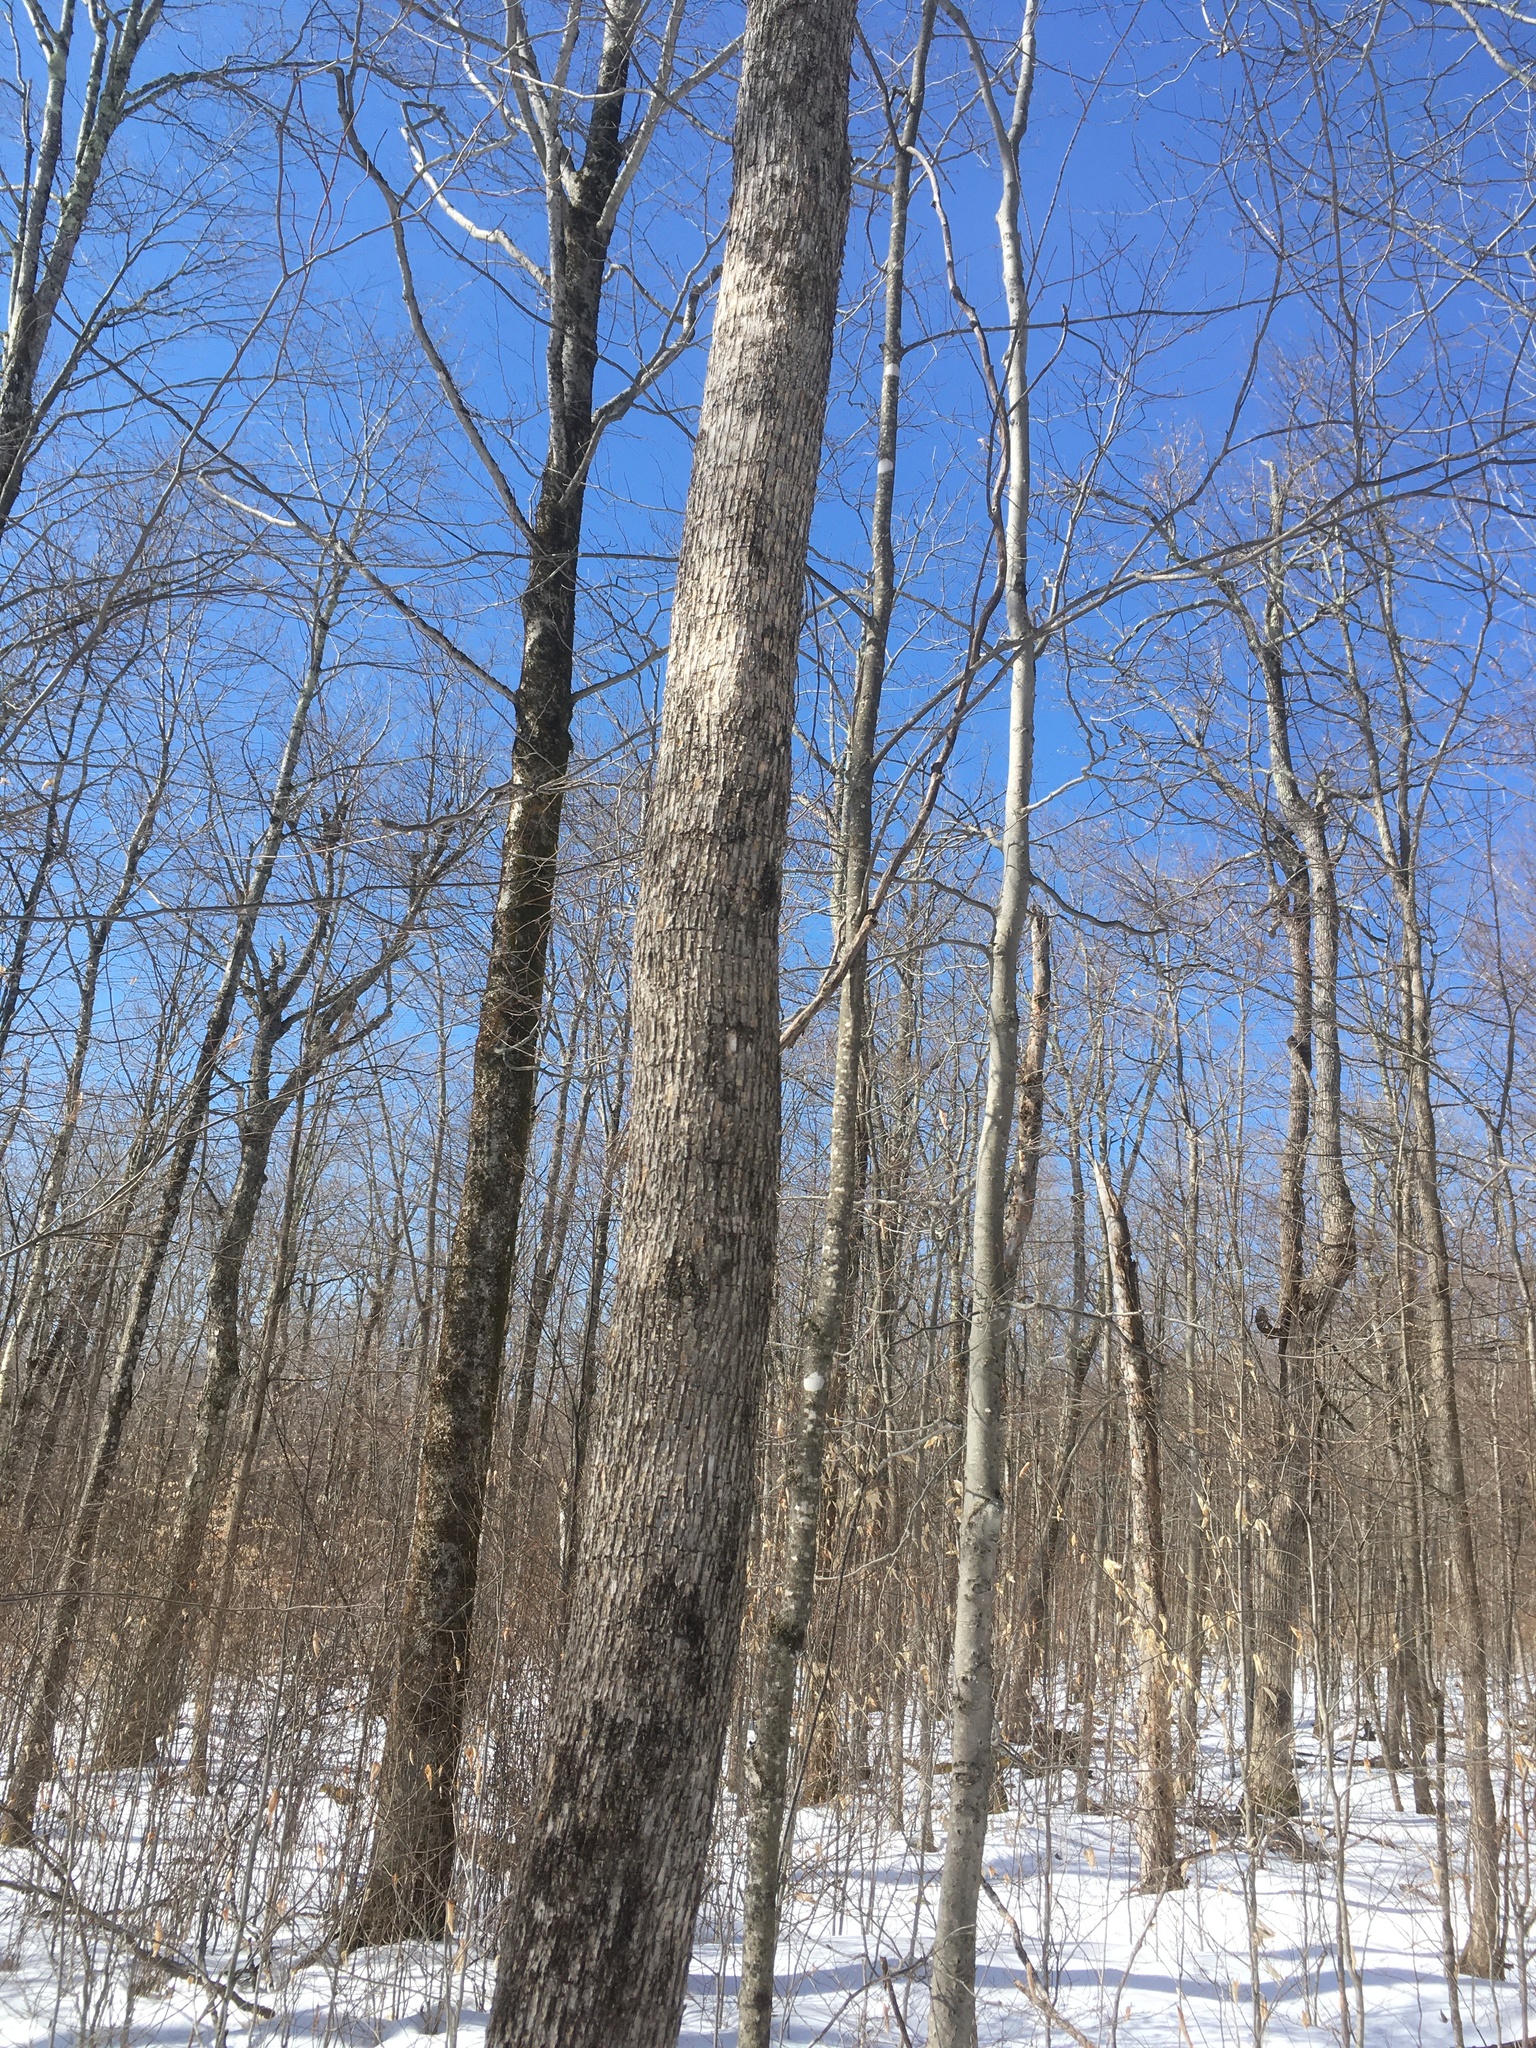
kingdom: Plantae
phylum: Tracheophyta
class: Magnoliopsida
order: Fagales
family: Betulaceae
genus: Ostrya
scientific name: Ostrya virginiana
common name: Ironwood
